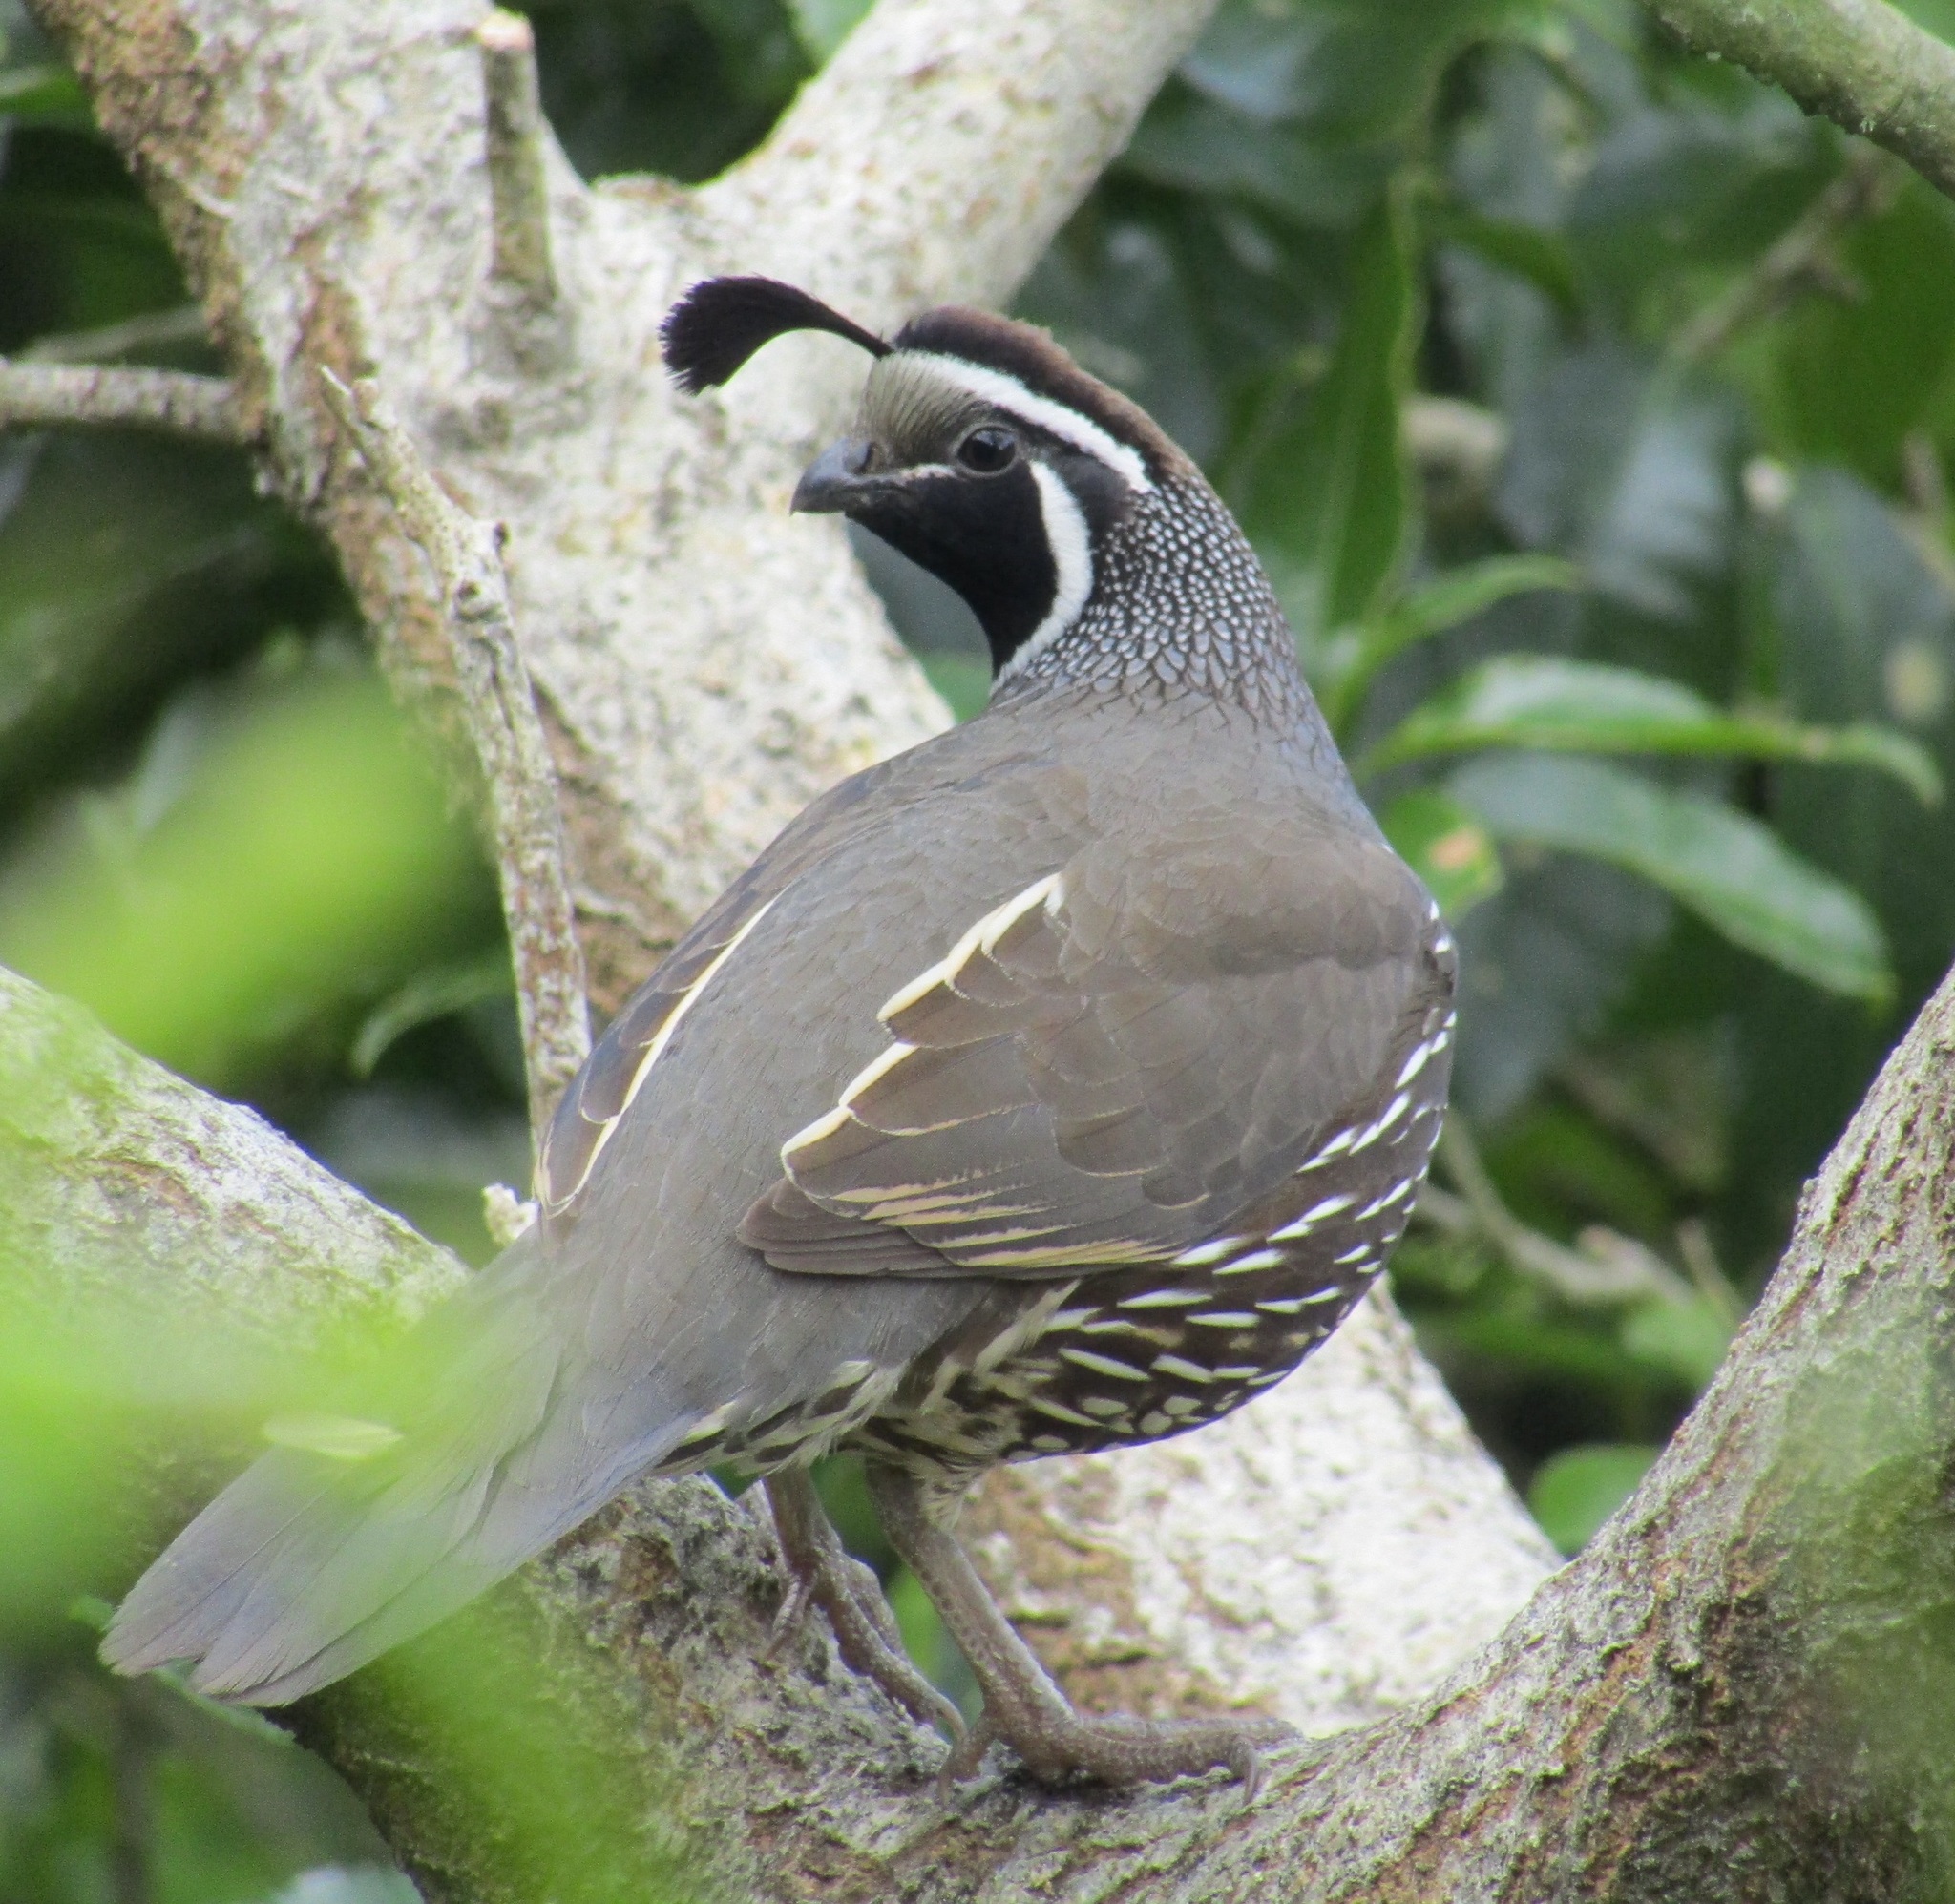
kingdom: Animalia
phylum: Chordata
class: Aves
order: Galliformes
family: Odontophoridae
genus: Callipepla
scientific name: Callipepla californica
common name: California quail
